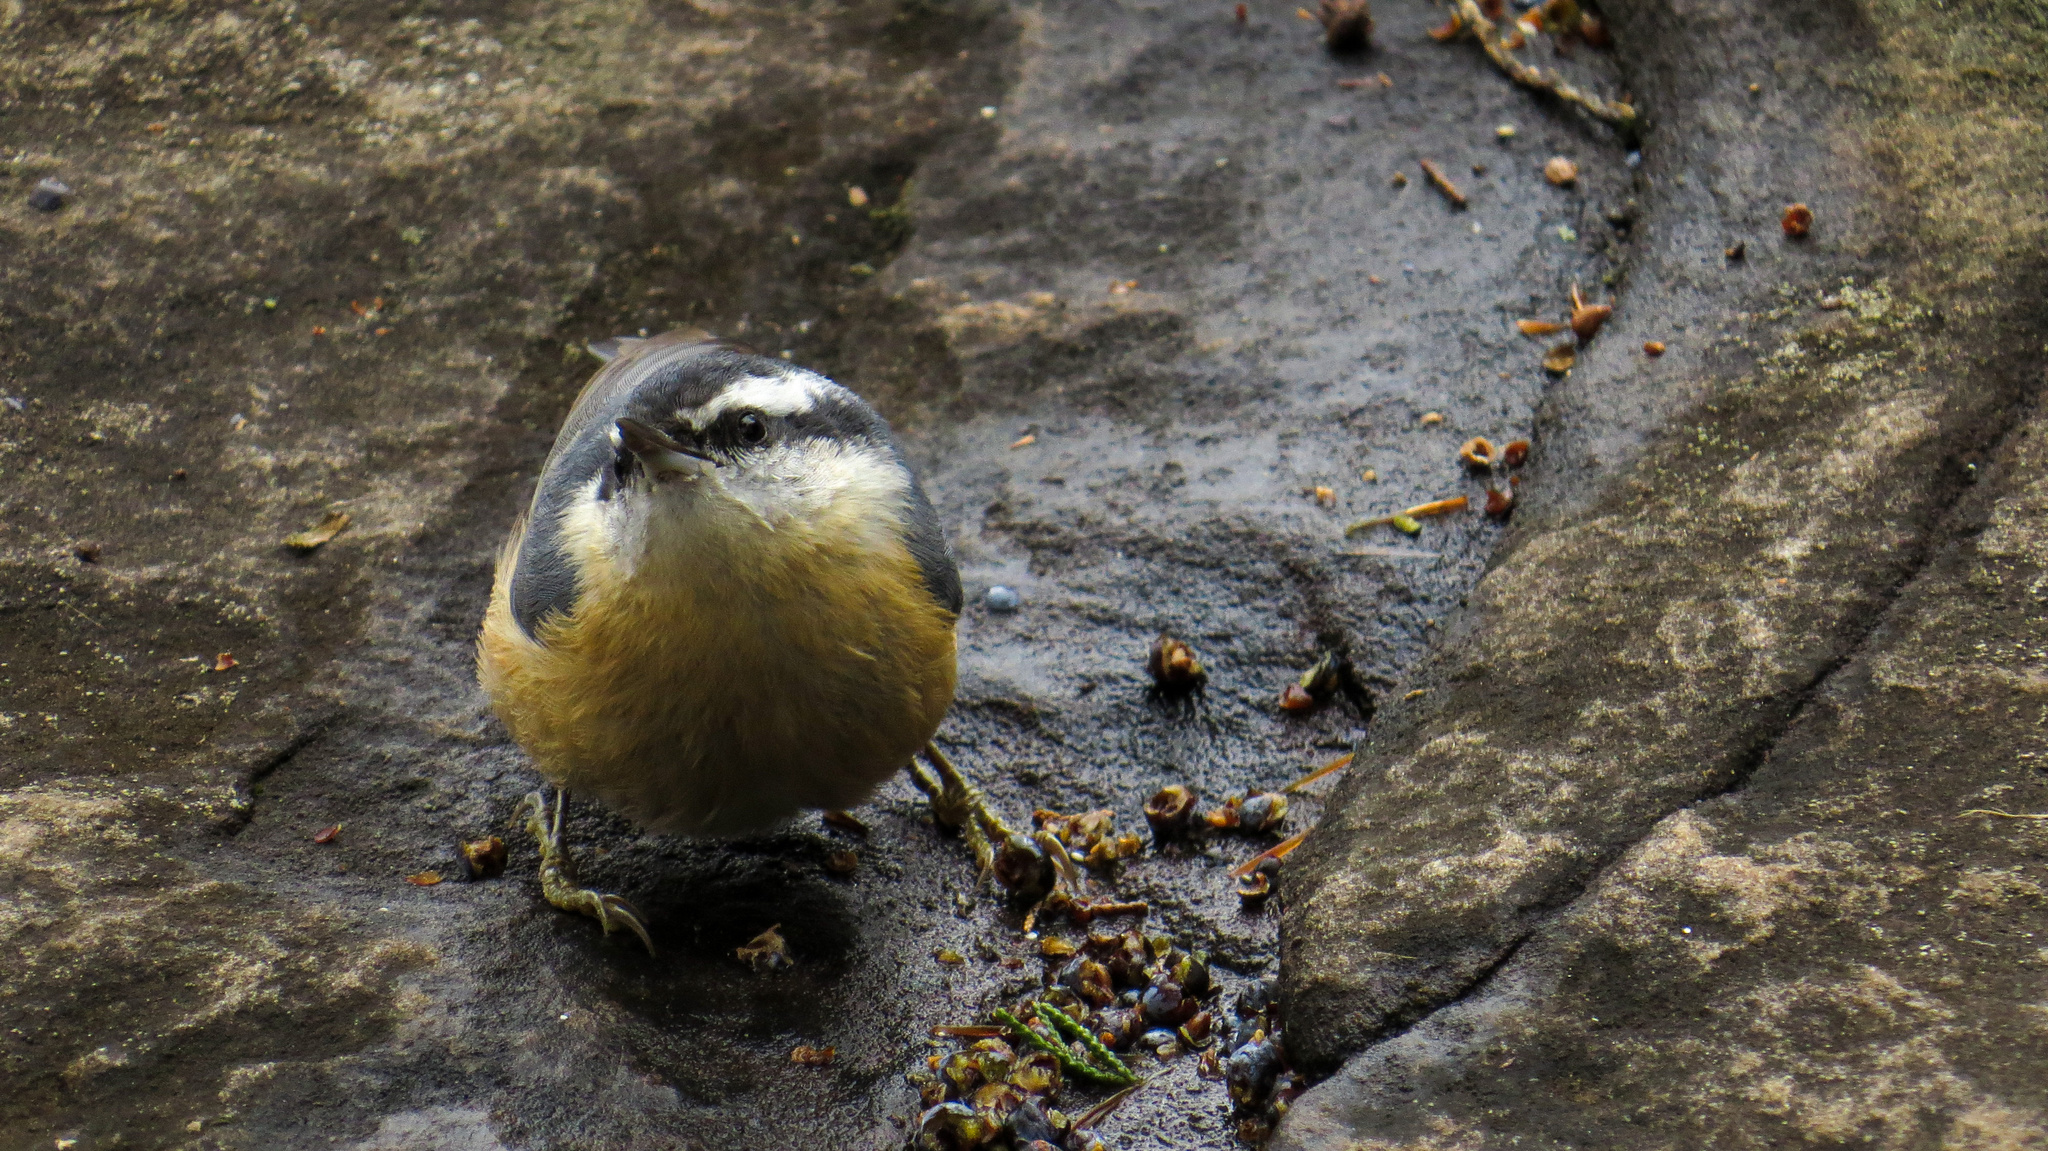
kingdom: Animalia
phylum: Chordata
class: Aves
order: Passeriformes
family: Sittidae
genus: Sitta
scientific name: Sitta canadensis
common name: Red-breasted nuthatch
